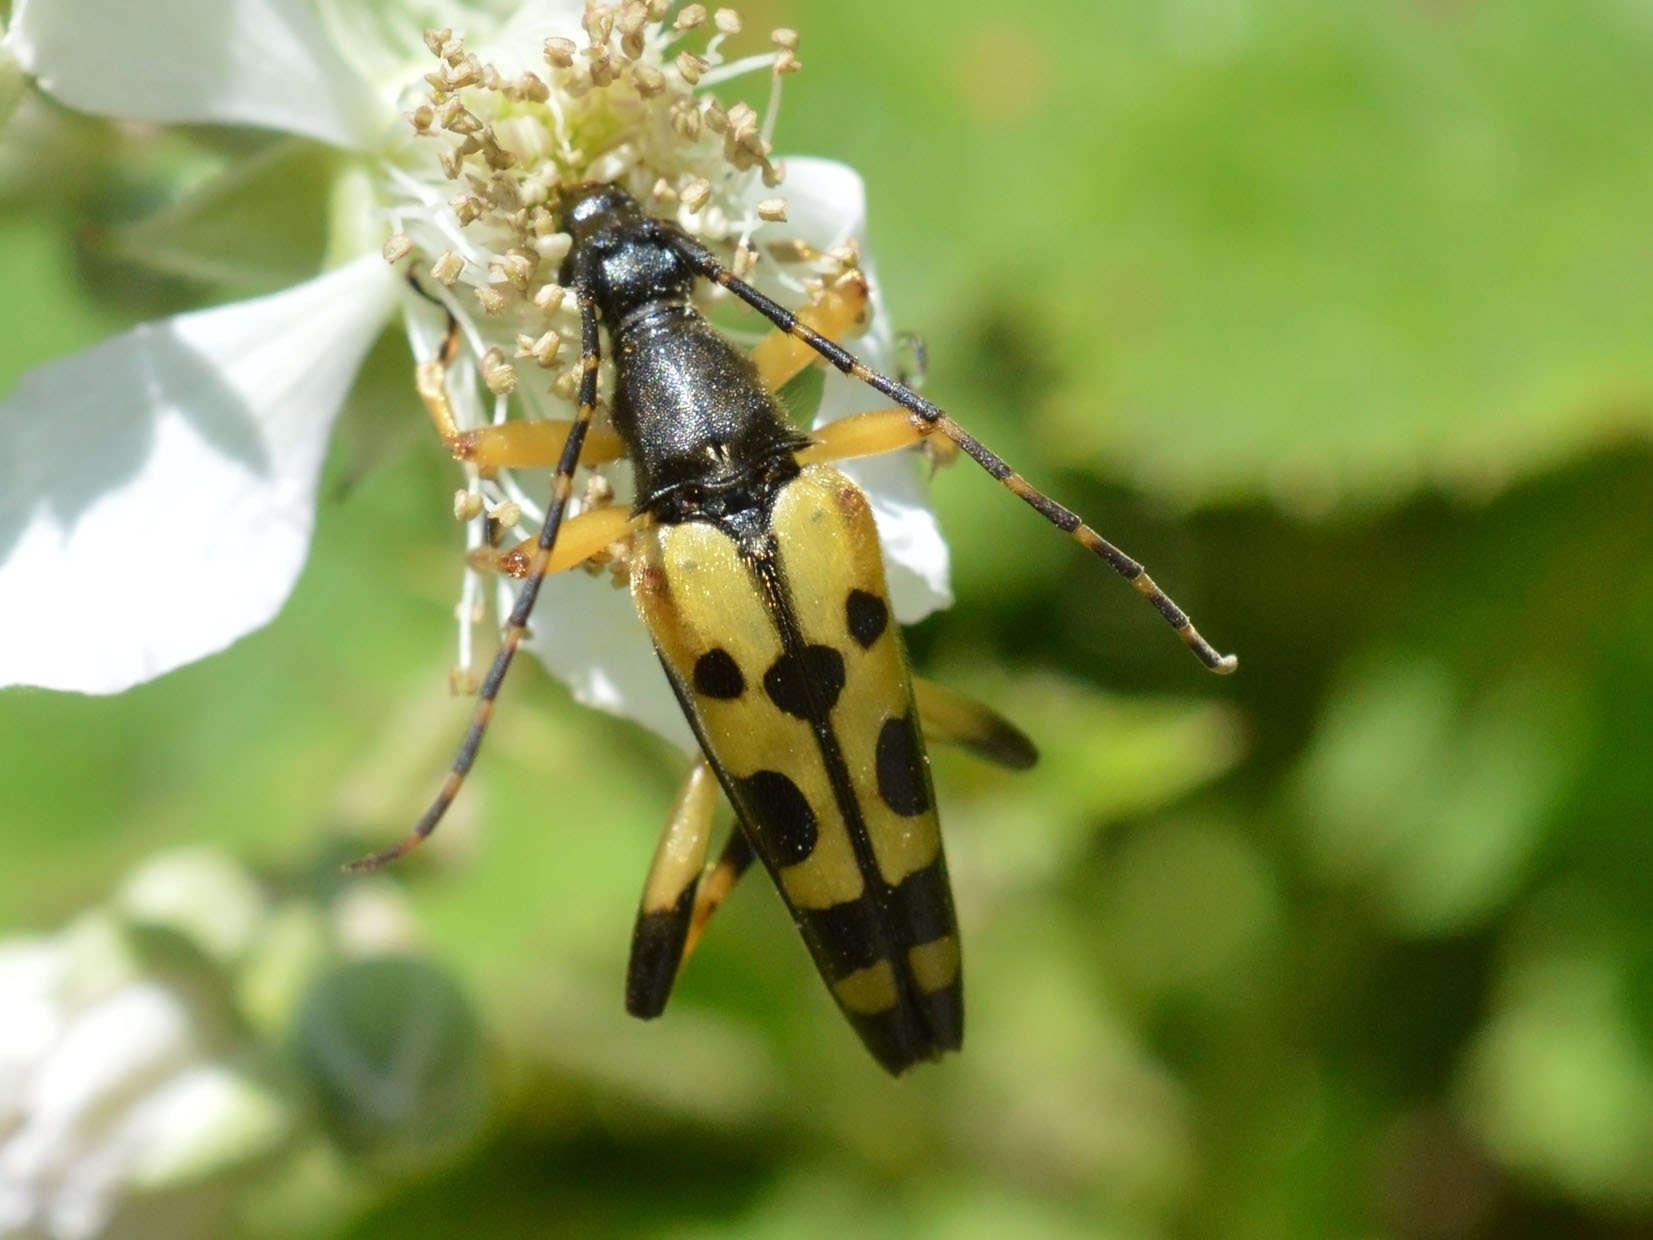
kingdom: Animalia
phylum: Arthropoda
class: Insecta
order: Coleoptera
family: Cerambycidae
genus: Rutpela
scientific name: Rutpela maculata
